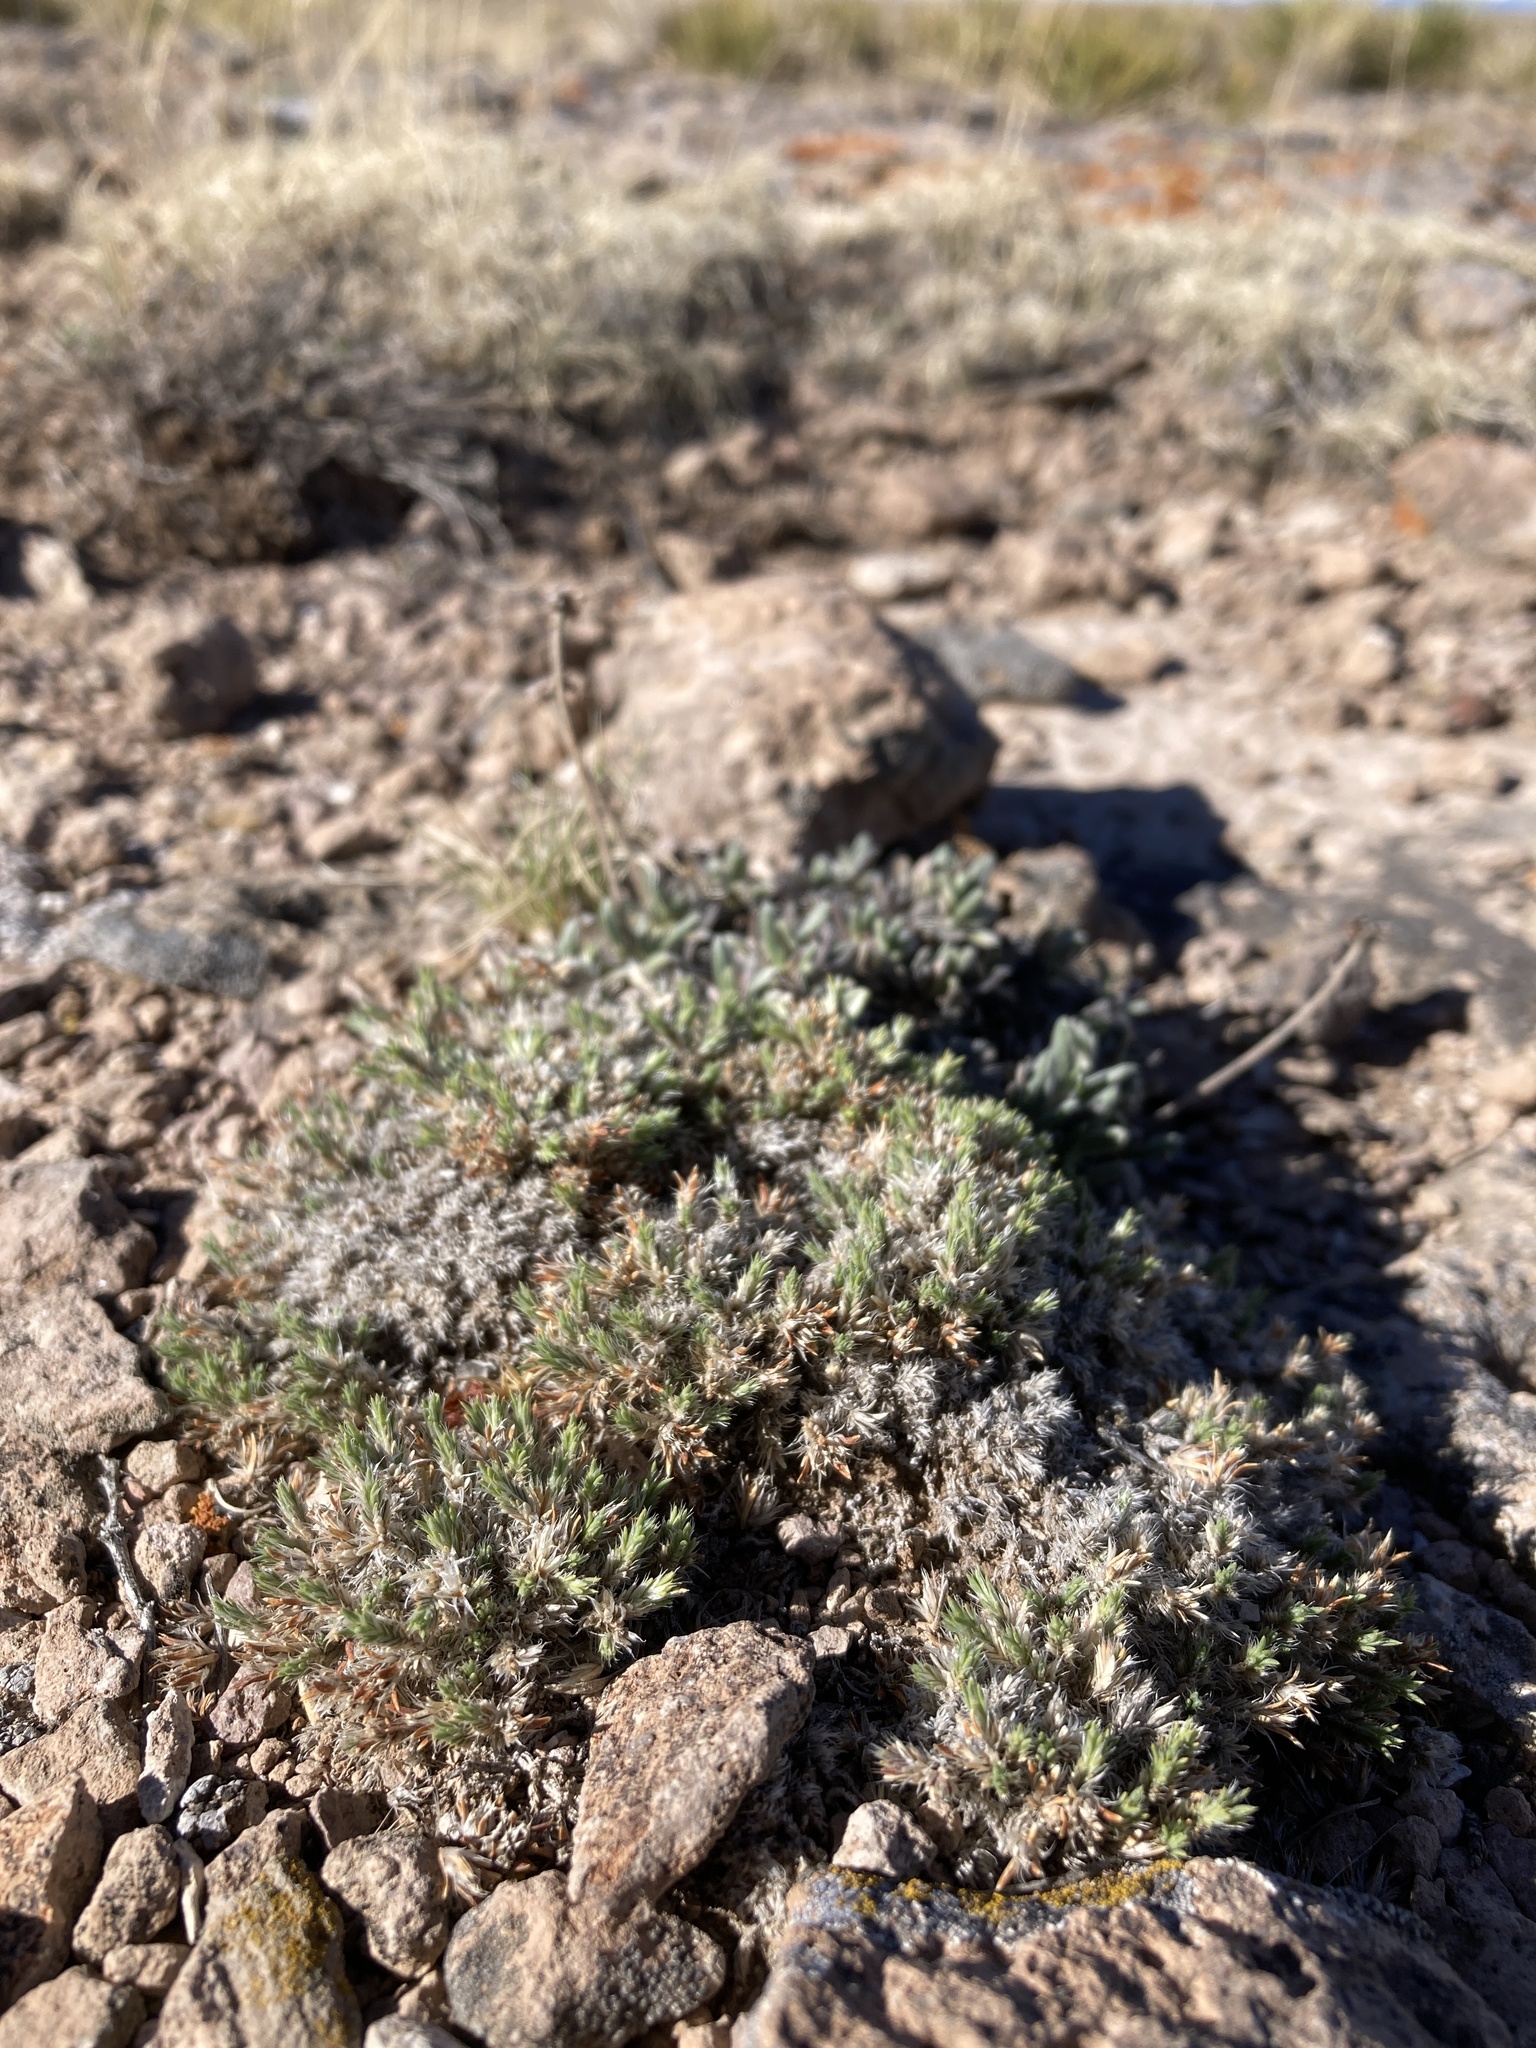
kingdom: Plantae
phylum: Tracheophyta
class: Magnoliopsida
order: Caryophyllales
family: Caryophyllaceae
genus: Paronychia
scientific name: Paronychia sessiliflora
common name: Creeping nailwort
